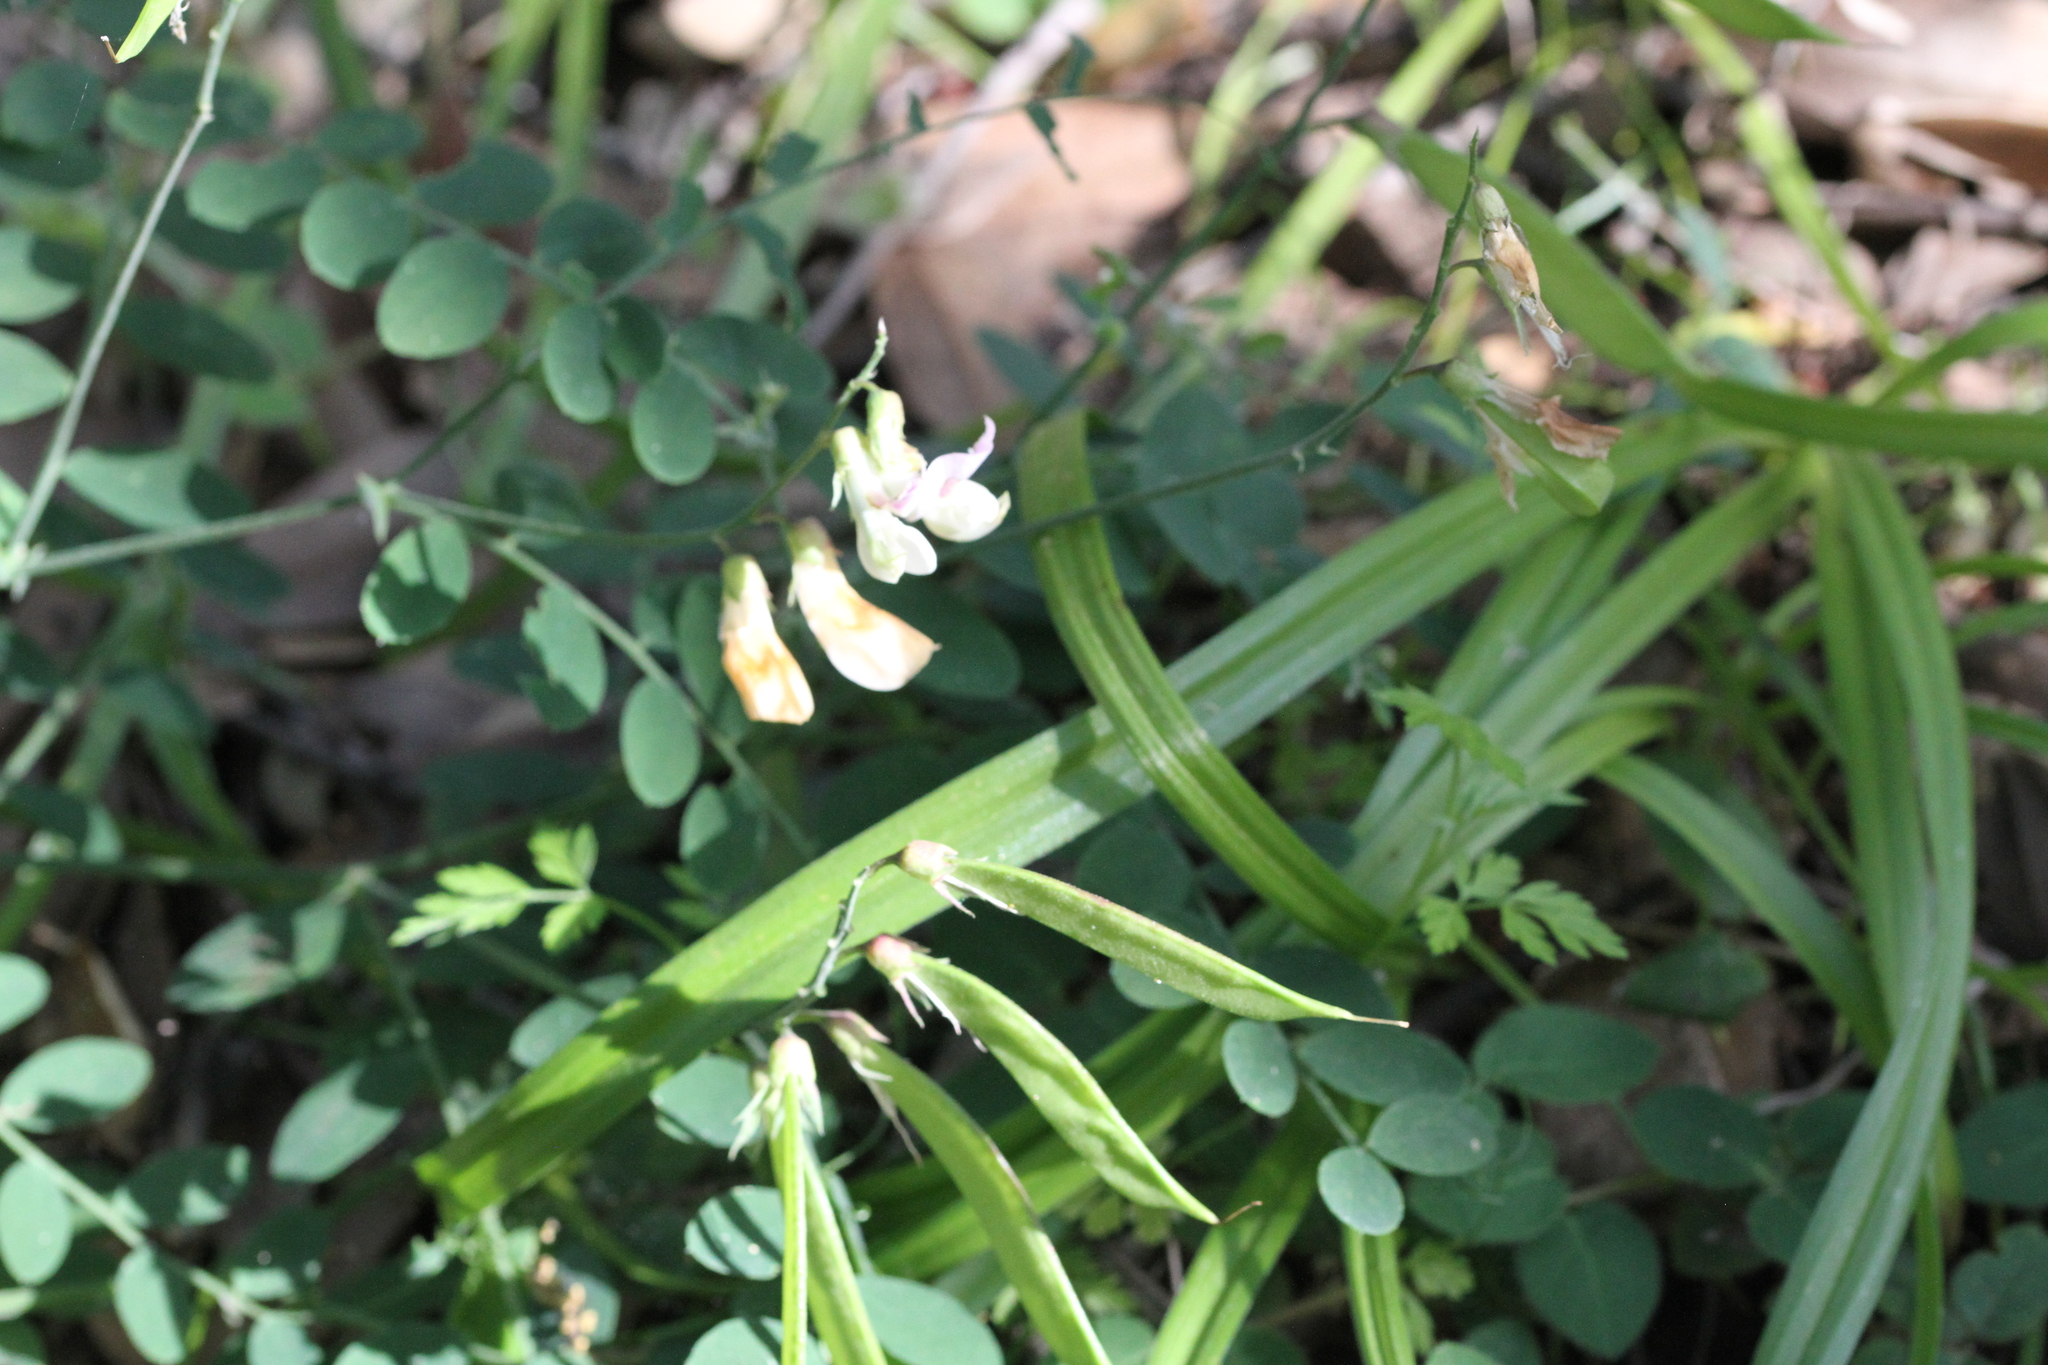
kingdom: Plantae
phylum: Tracheophyta
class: Magnoliopsida
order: Fabales
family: Fabaceae
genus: Lathyrus
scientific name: Lathyrus vestitus
